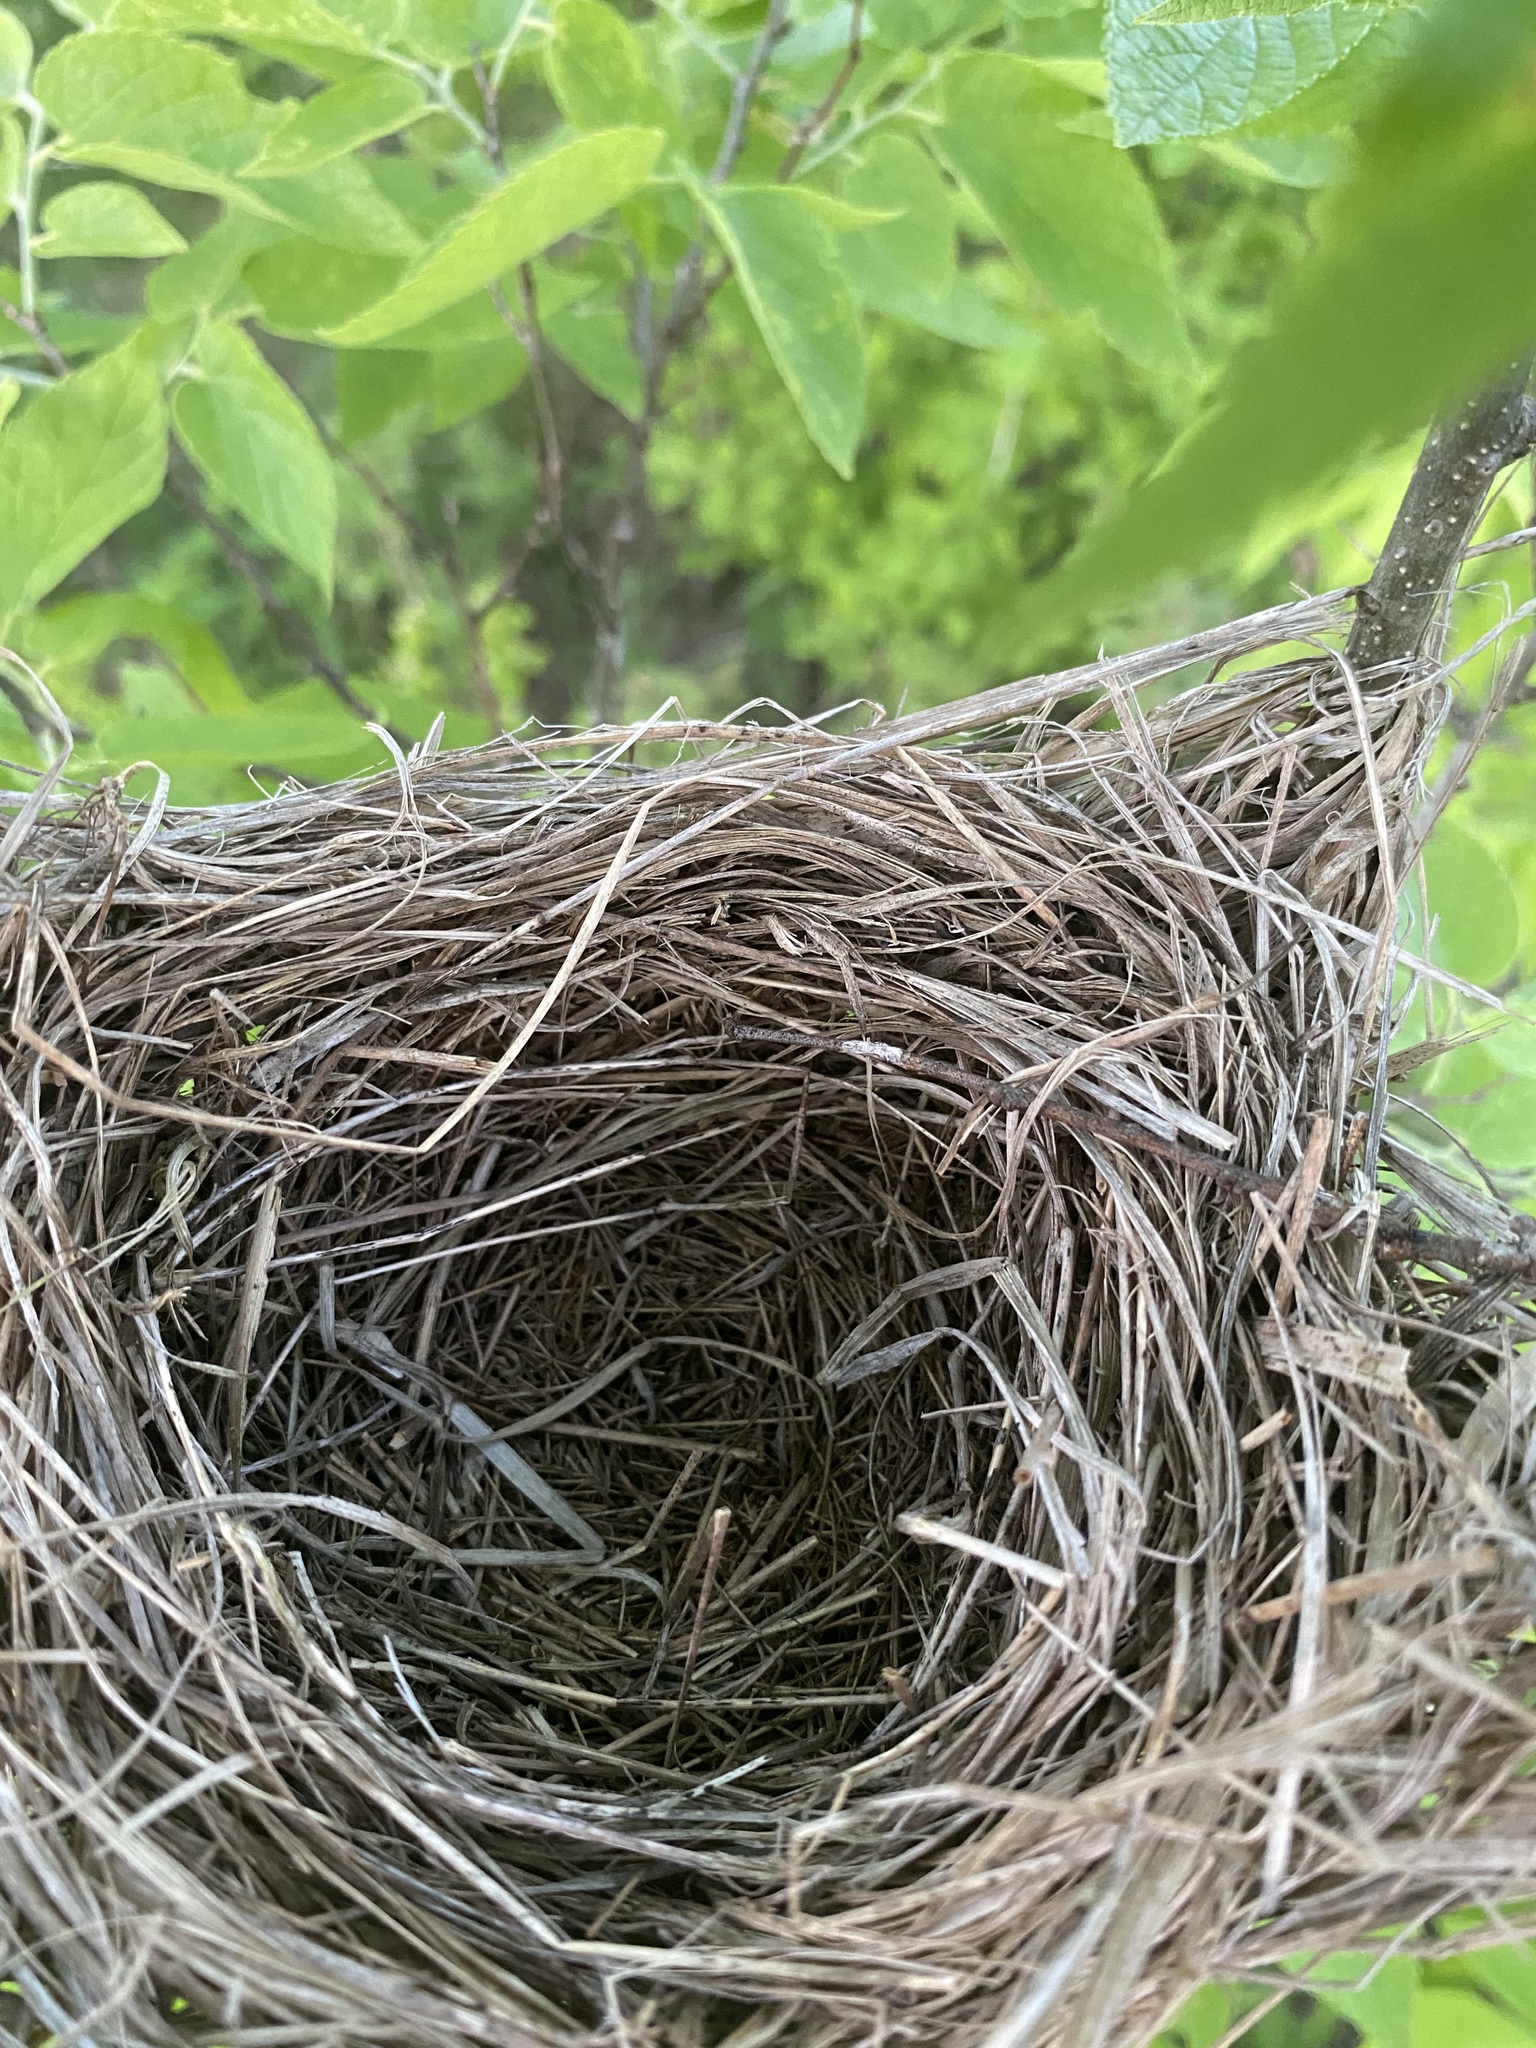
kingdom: Animalia
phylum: Chordata
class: Aves
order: Passeriformes
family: Icteridae
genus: Agelaius
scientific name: Agelaius phoeniceus
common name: Red-winged blackbird
